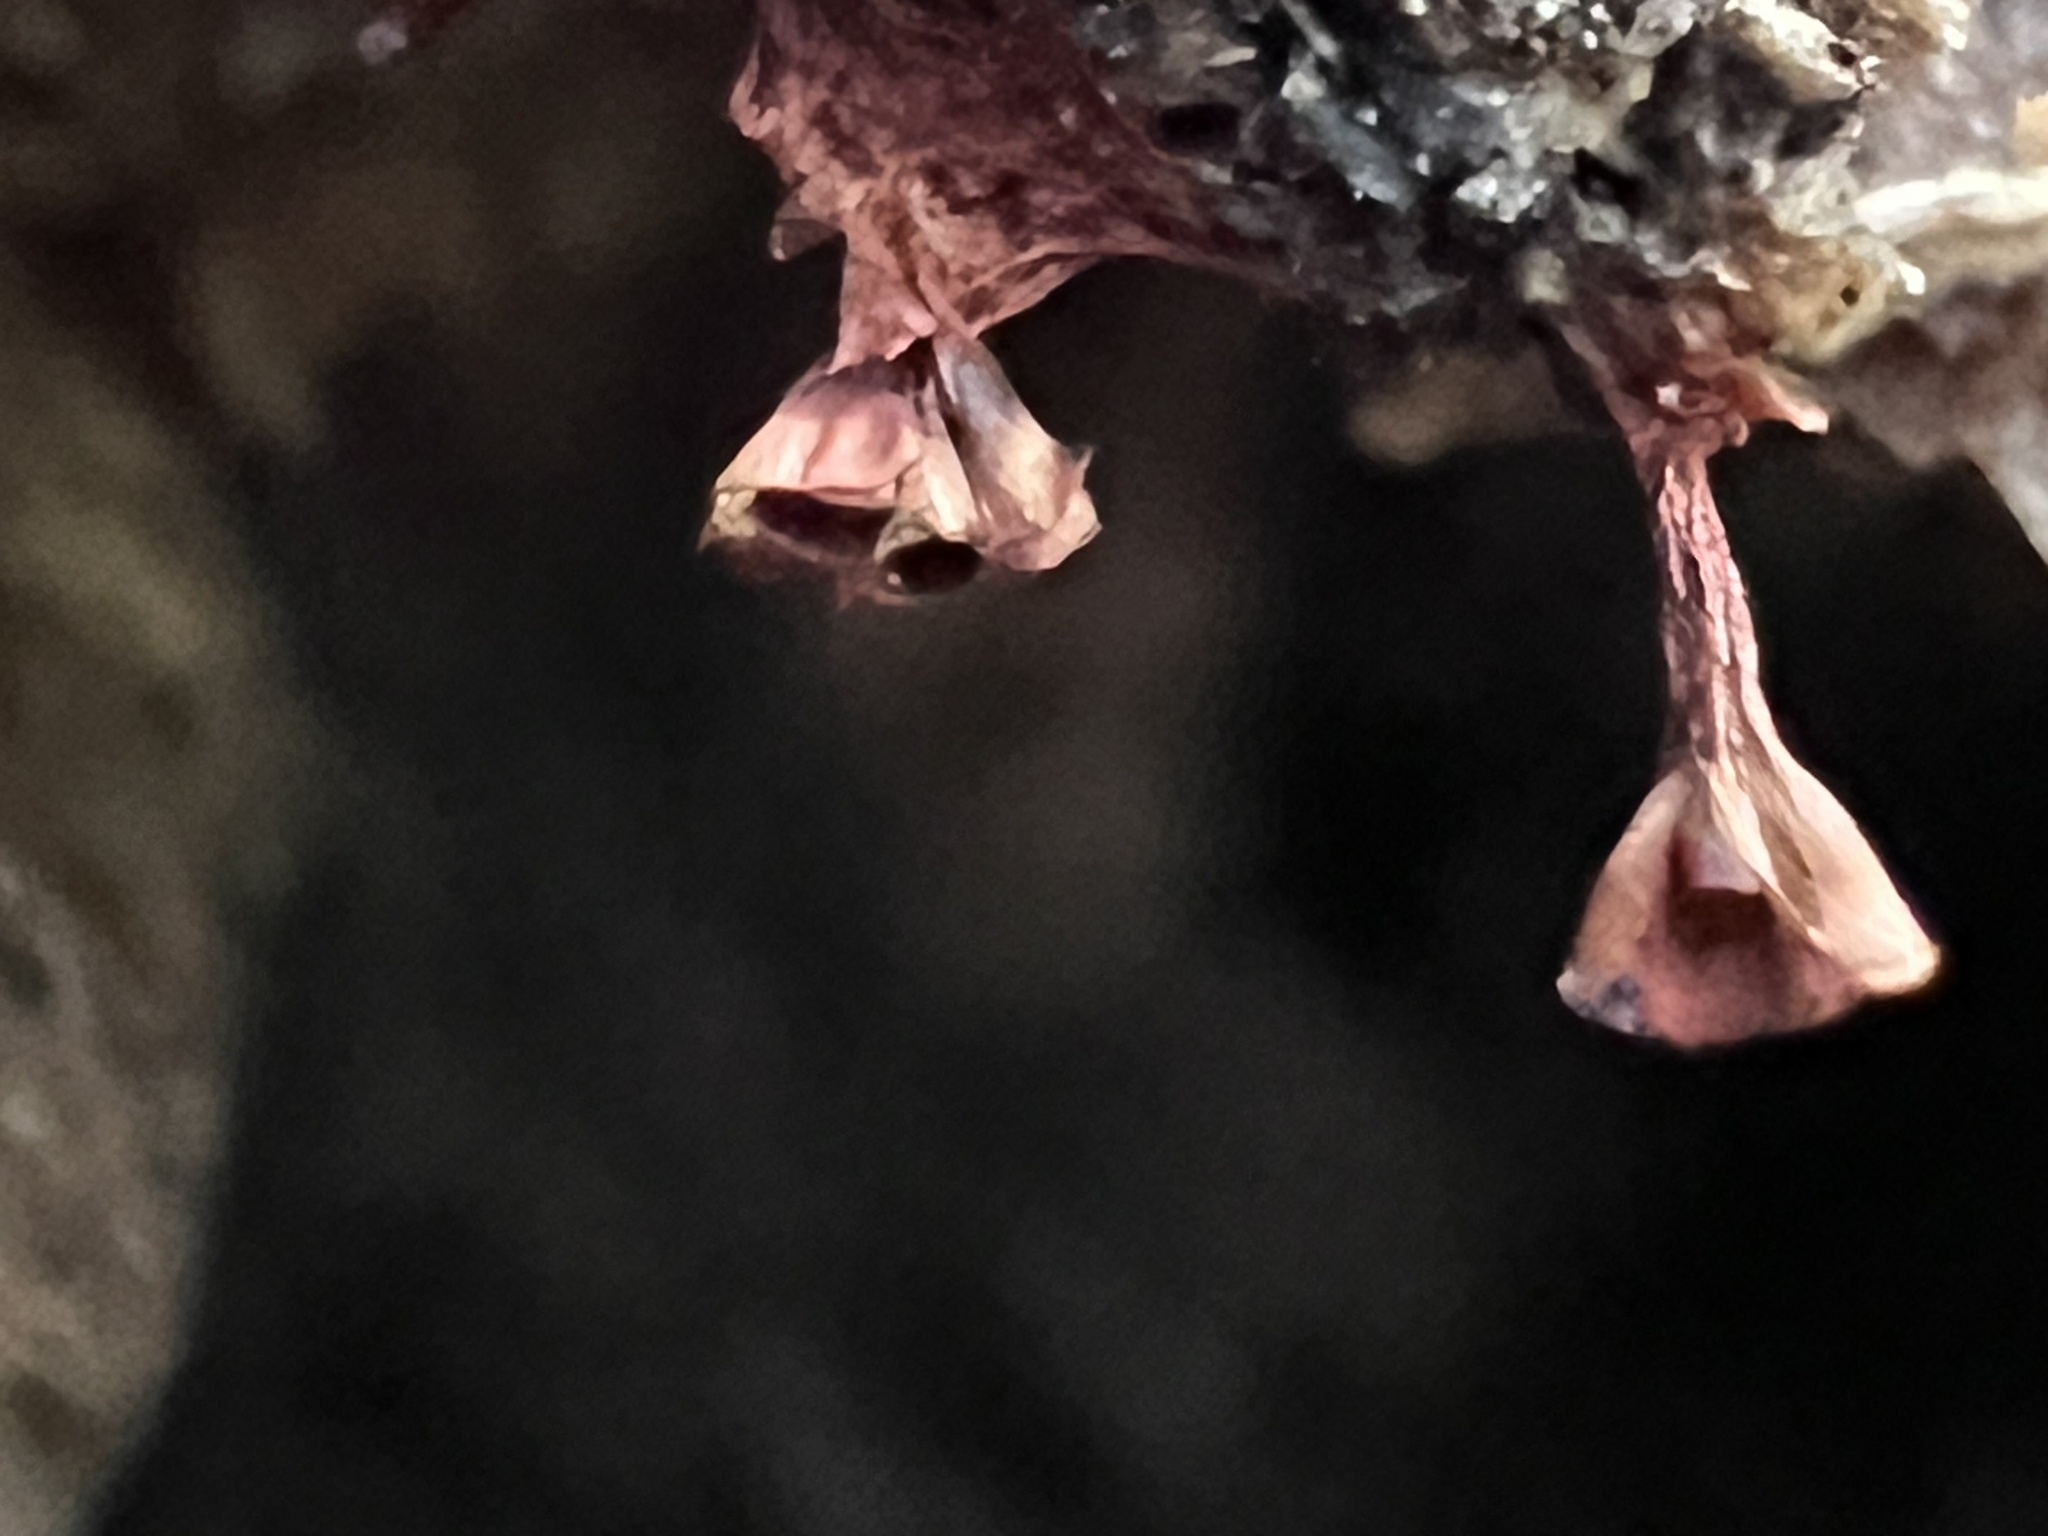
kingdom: Protozoa
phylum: Mycetozoa
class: Myxomycetes
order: Trichiales
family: Trichiaceae
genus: Metatrichia
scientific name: Metatrichia vesparia
